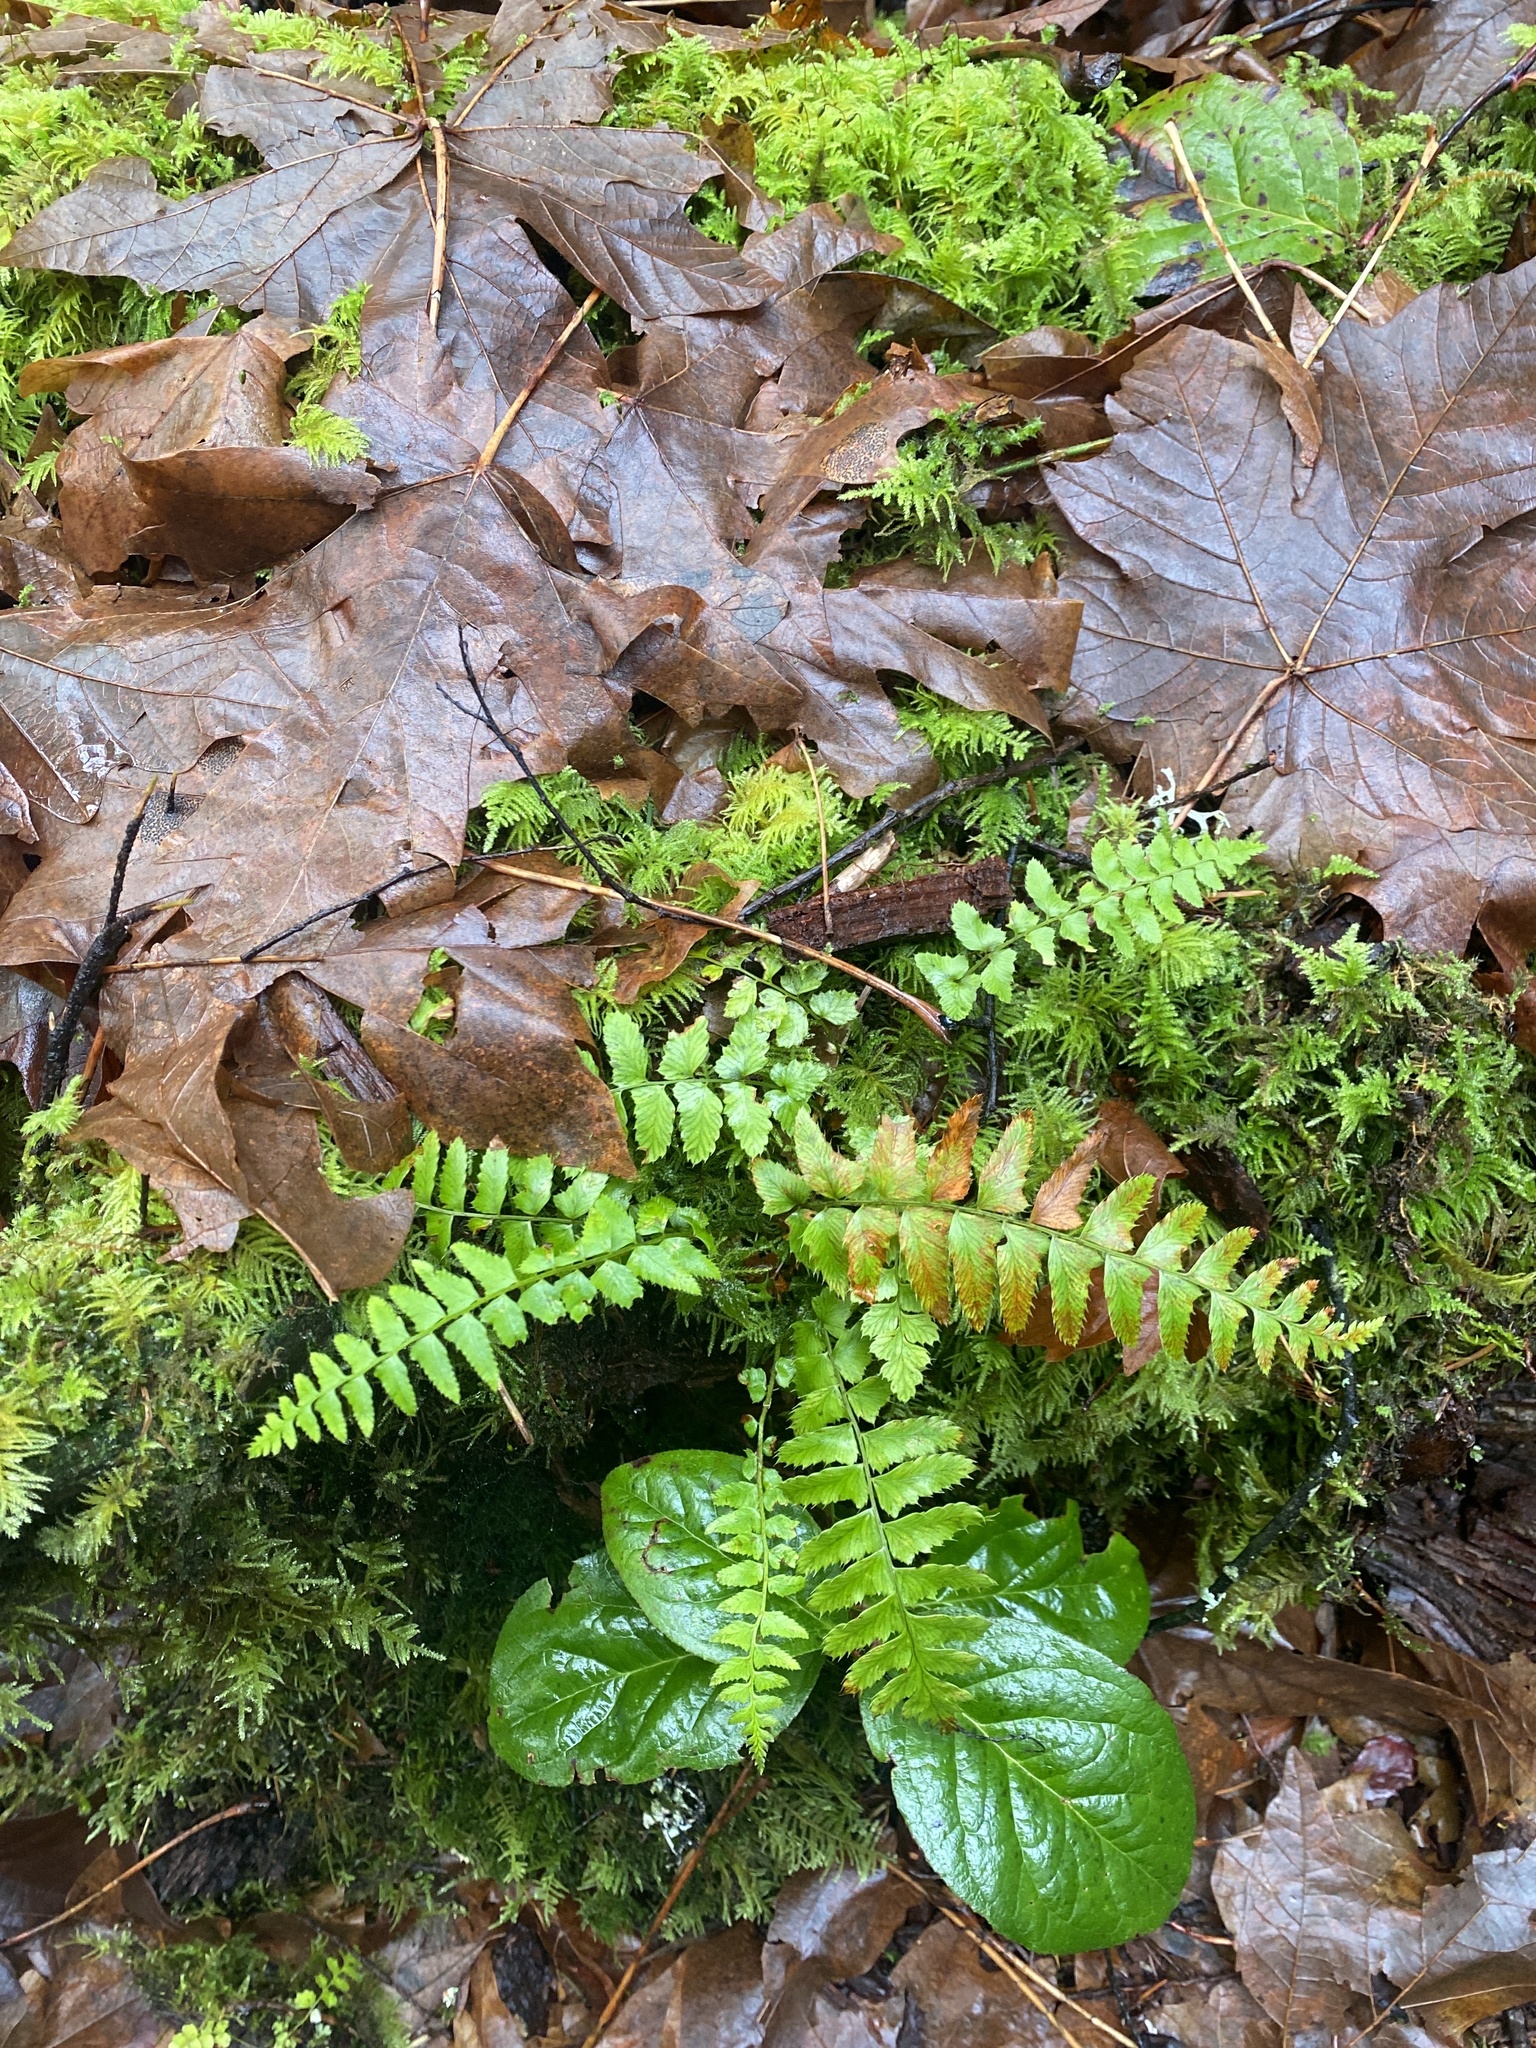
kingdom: Plantae
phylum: Tracheophyta
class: Polypodiopsida
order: Polypodiales
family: Dryopteridaceae
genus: Polystichum
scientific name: Polystichum munitum
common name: Western sword-fern
